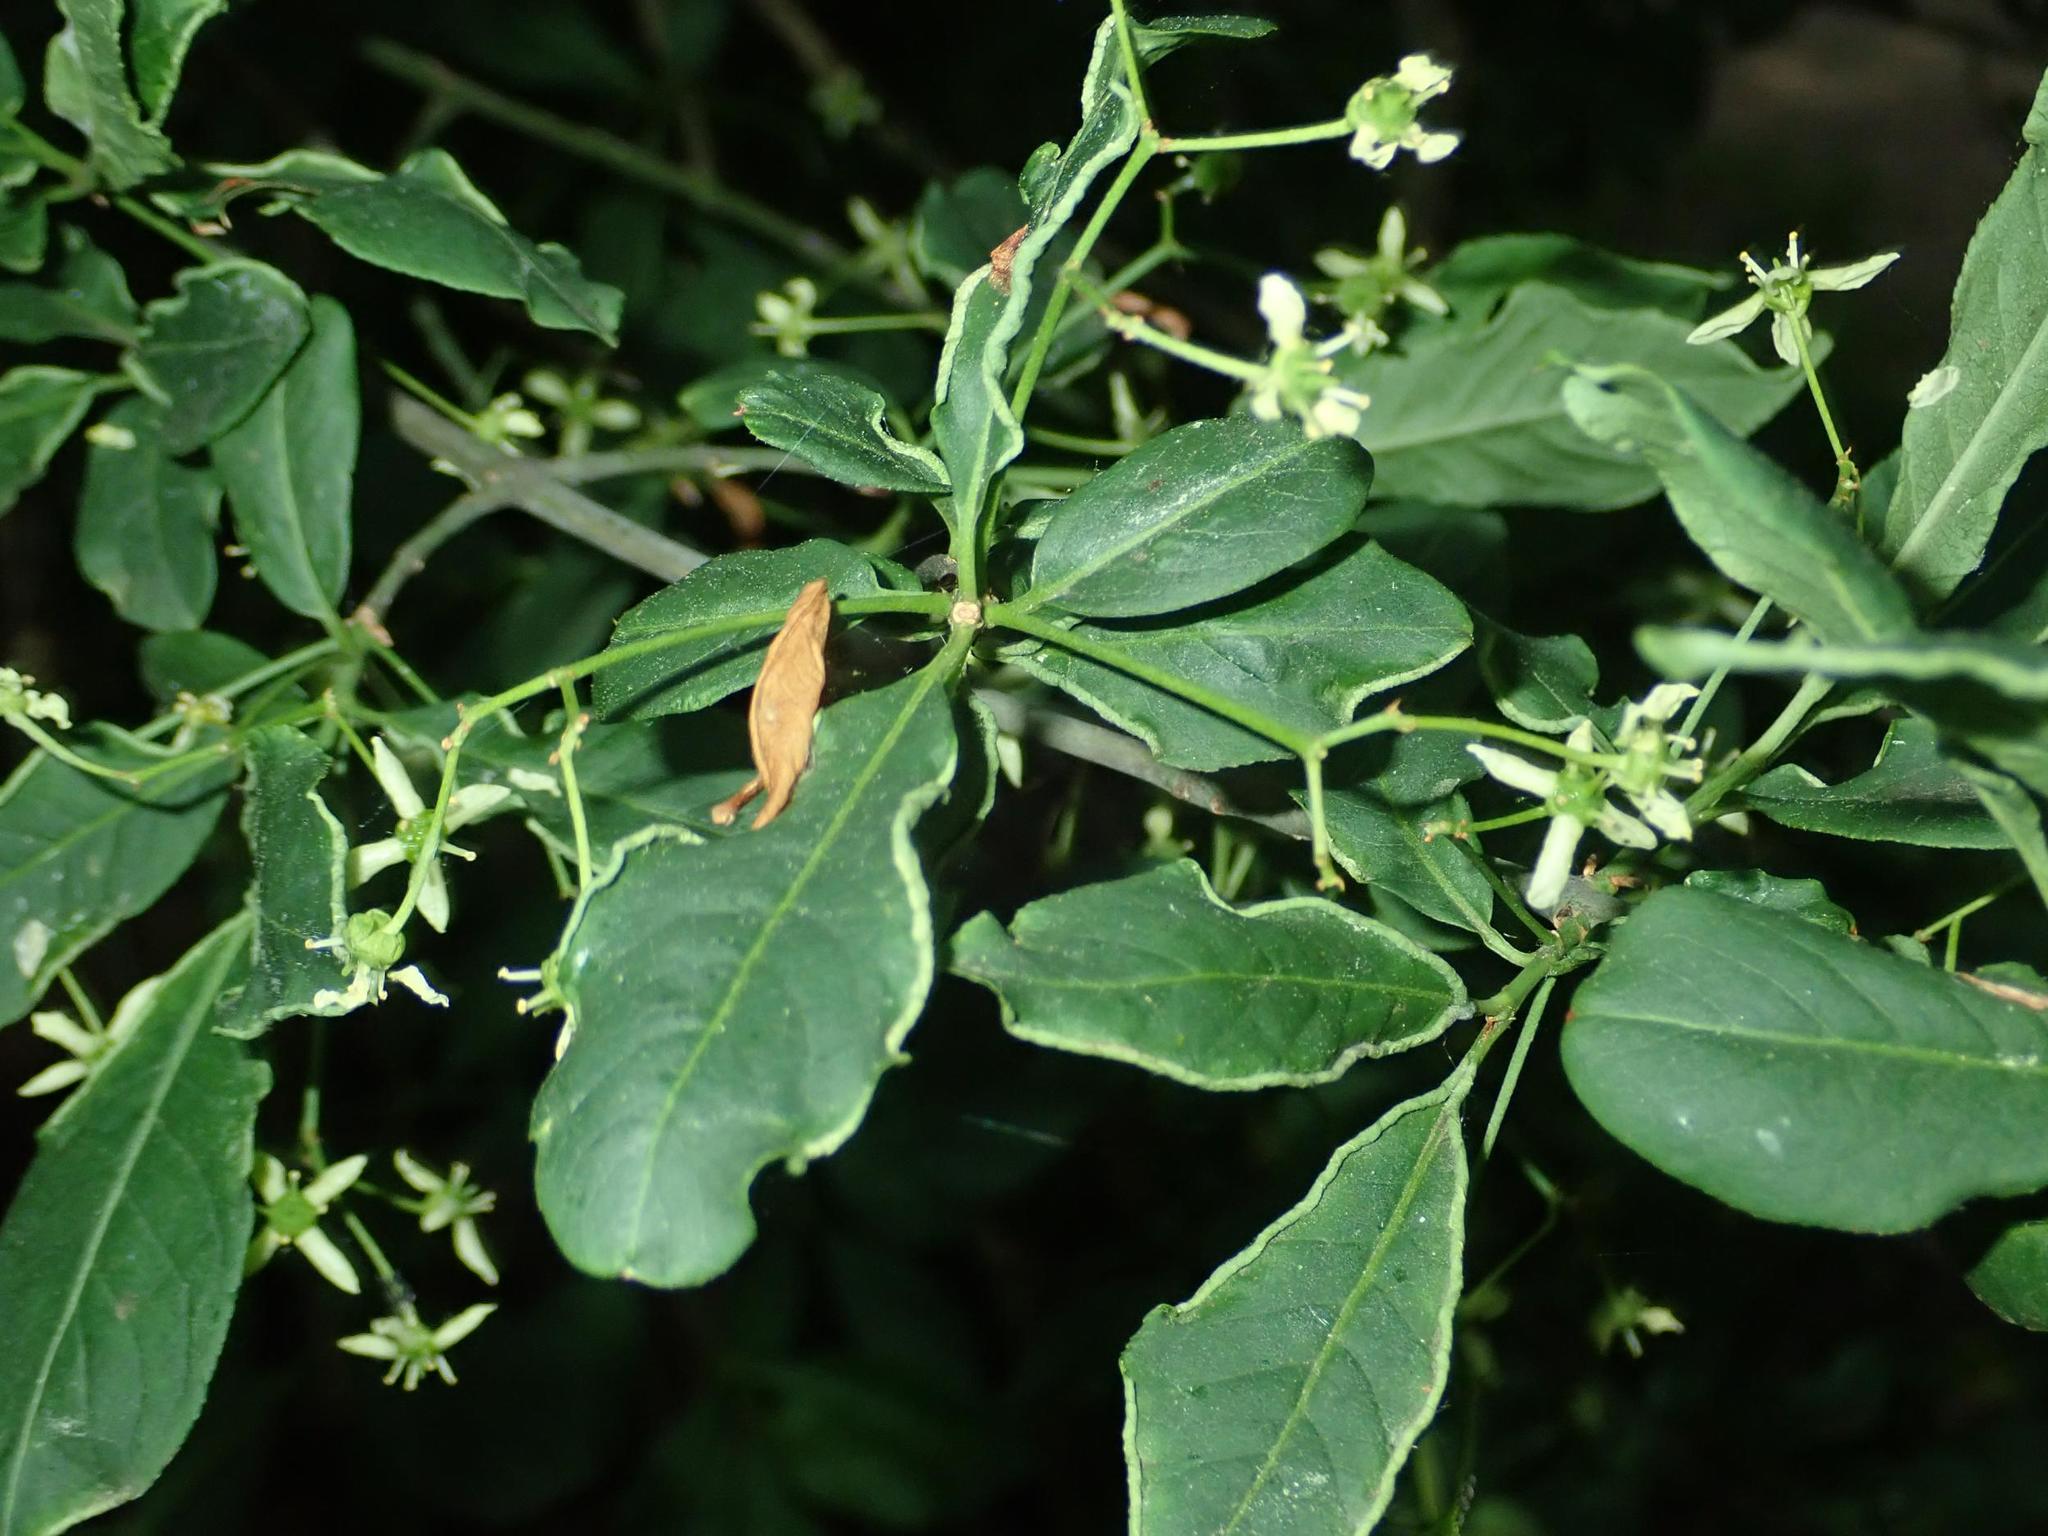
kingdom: Plantae
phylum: Tracheophyta
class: Magnoliopsida
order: Celastrales
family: Celastraceae
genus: Euonymus
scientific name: Euonymus europaeus
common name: Spindle
